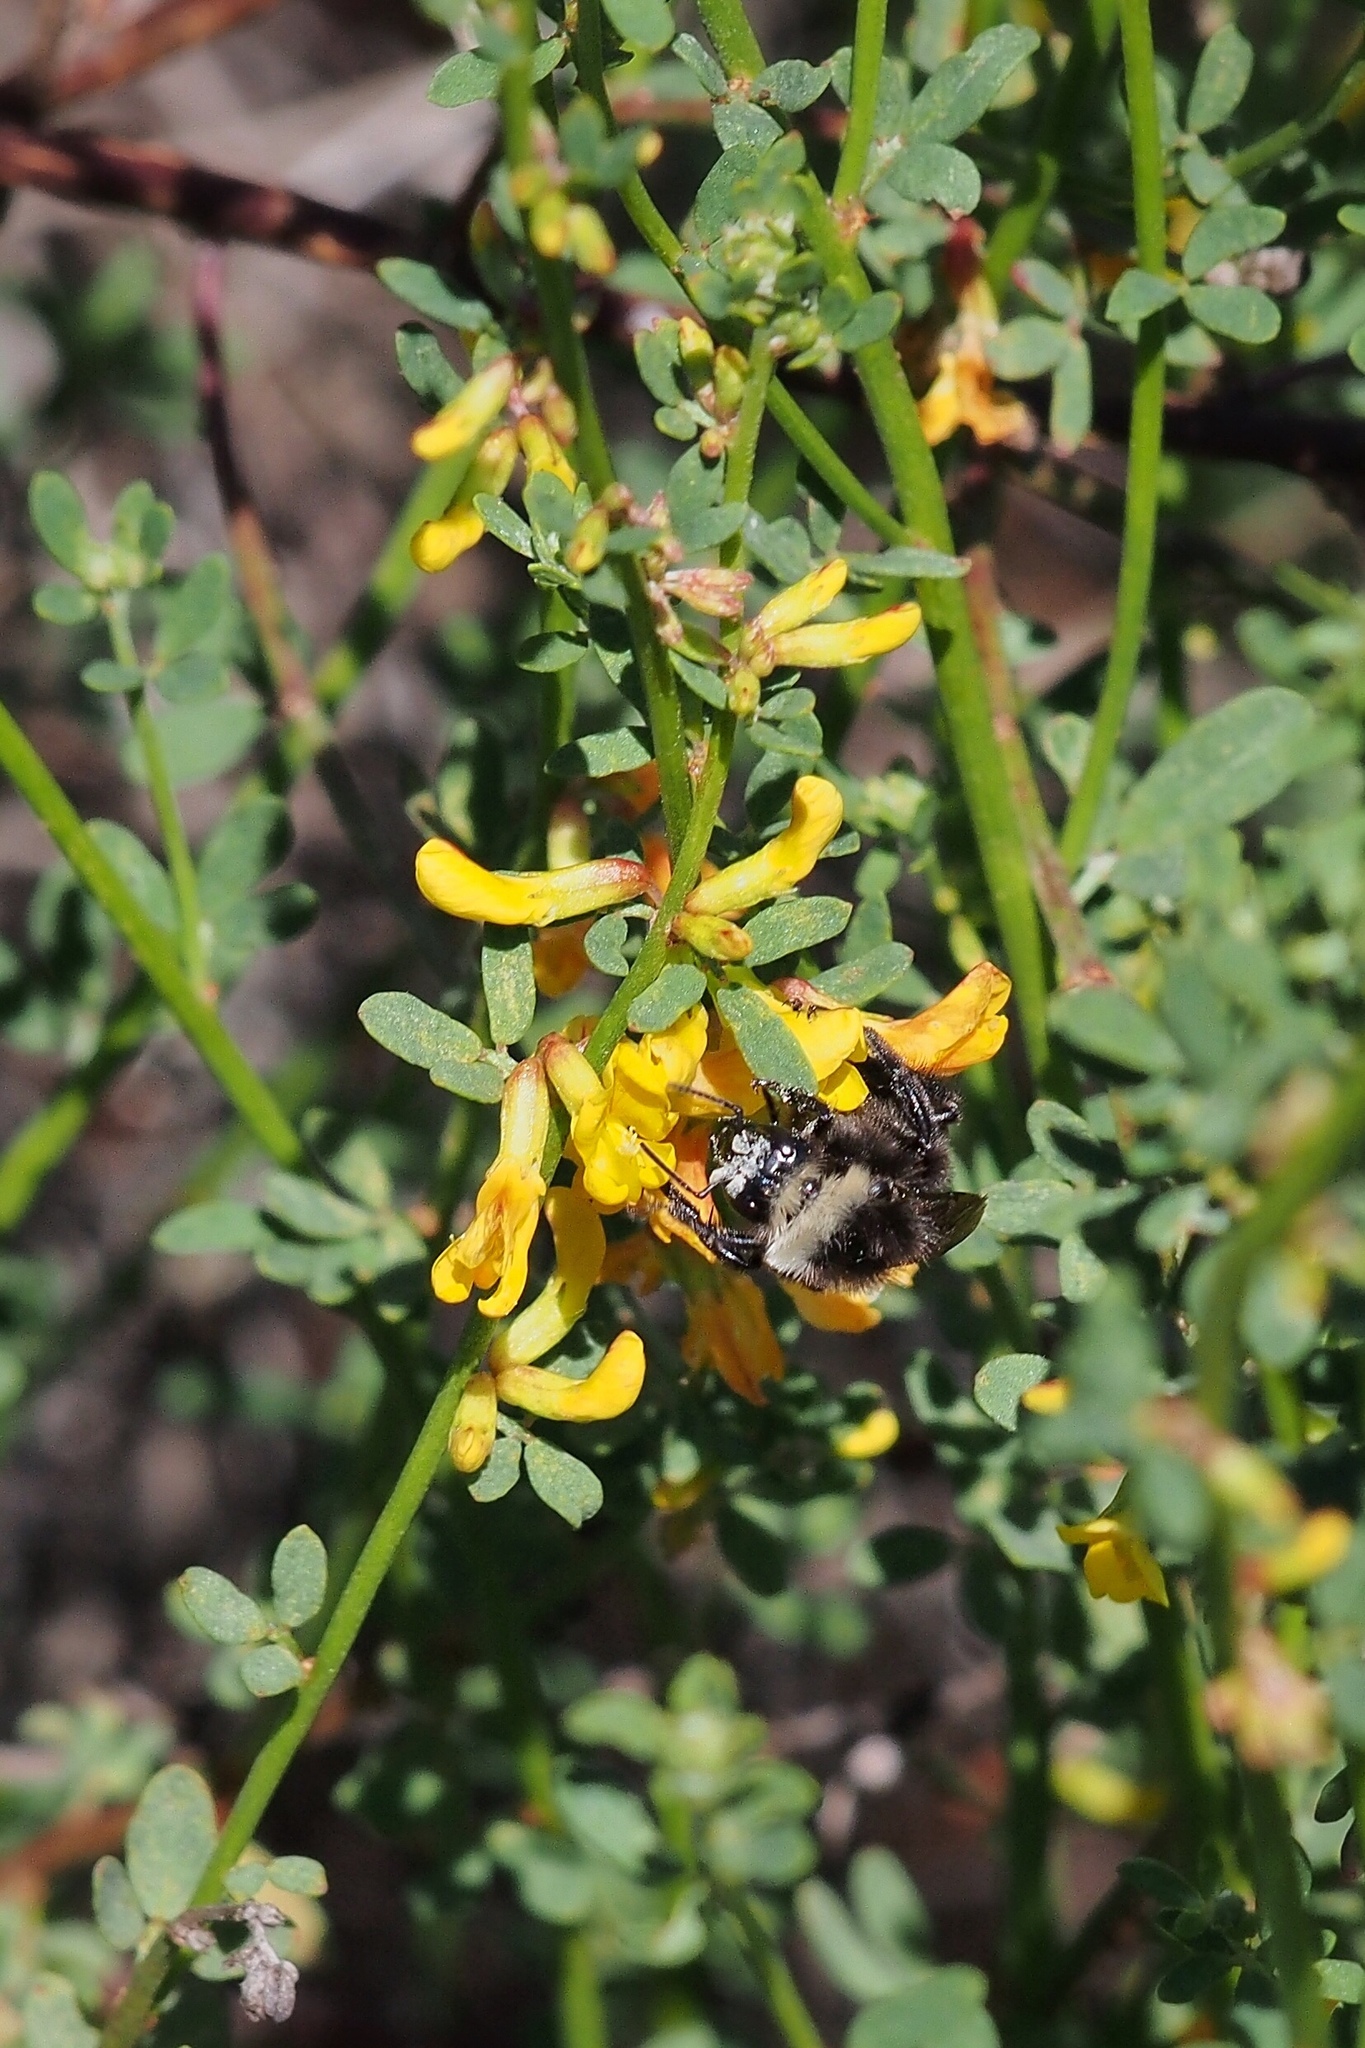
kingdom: Animalia
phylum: Arthropoda
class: Insecta
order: Hymenoptera
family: Apidae
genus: Bombus
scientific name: Bombus vosnesenskii
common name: Vosnesensky bumble bee
